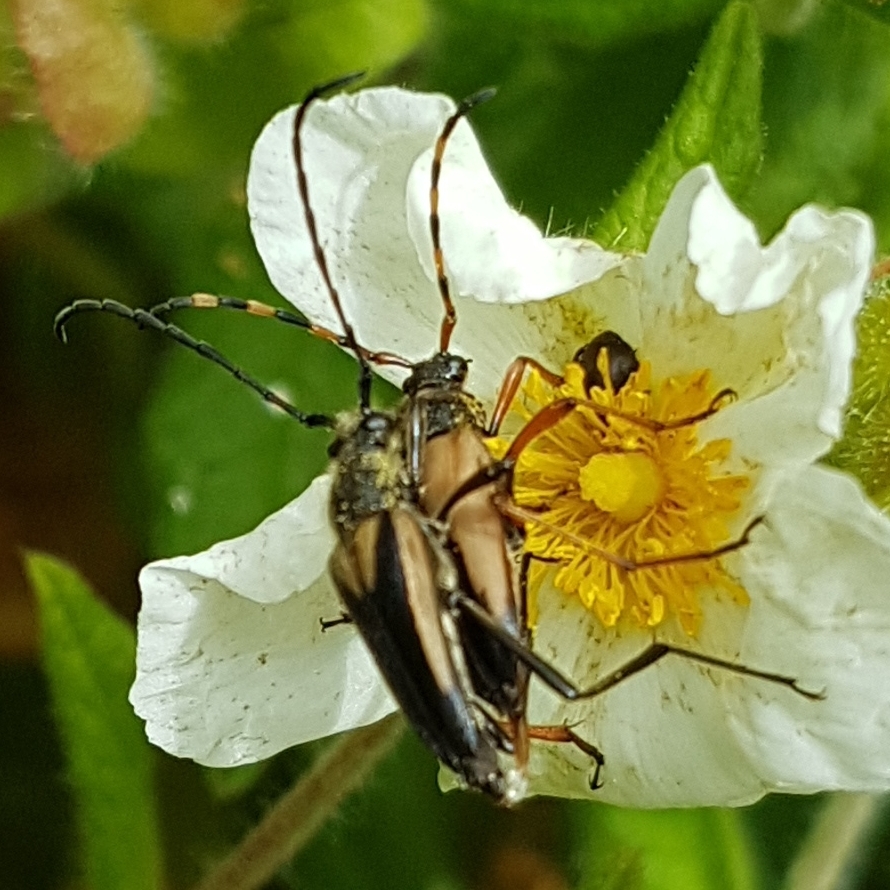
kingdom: Animalia
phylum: Arthropoda
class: Insecta
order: Coleoptera
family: Cerambycidae
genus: Stictoleptura
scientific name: Stictoleptura stragulata
